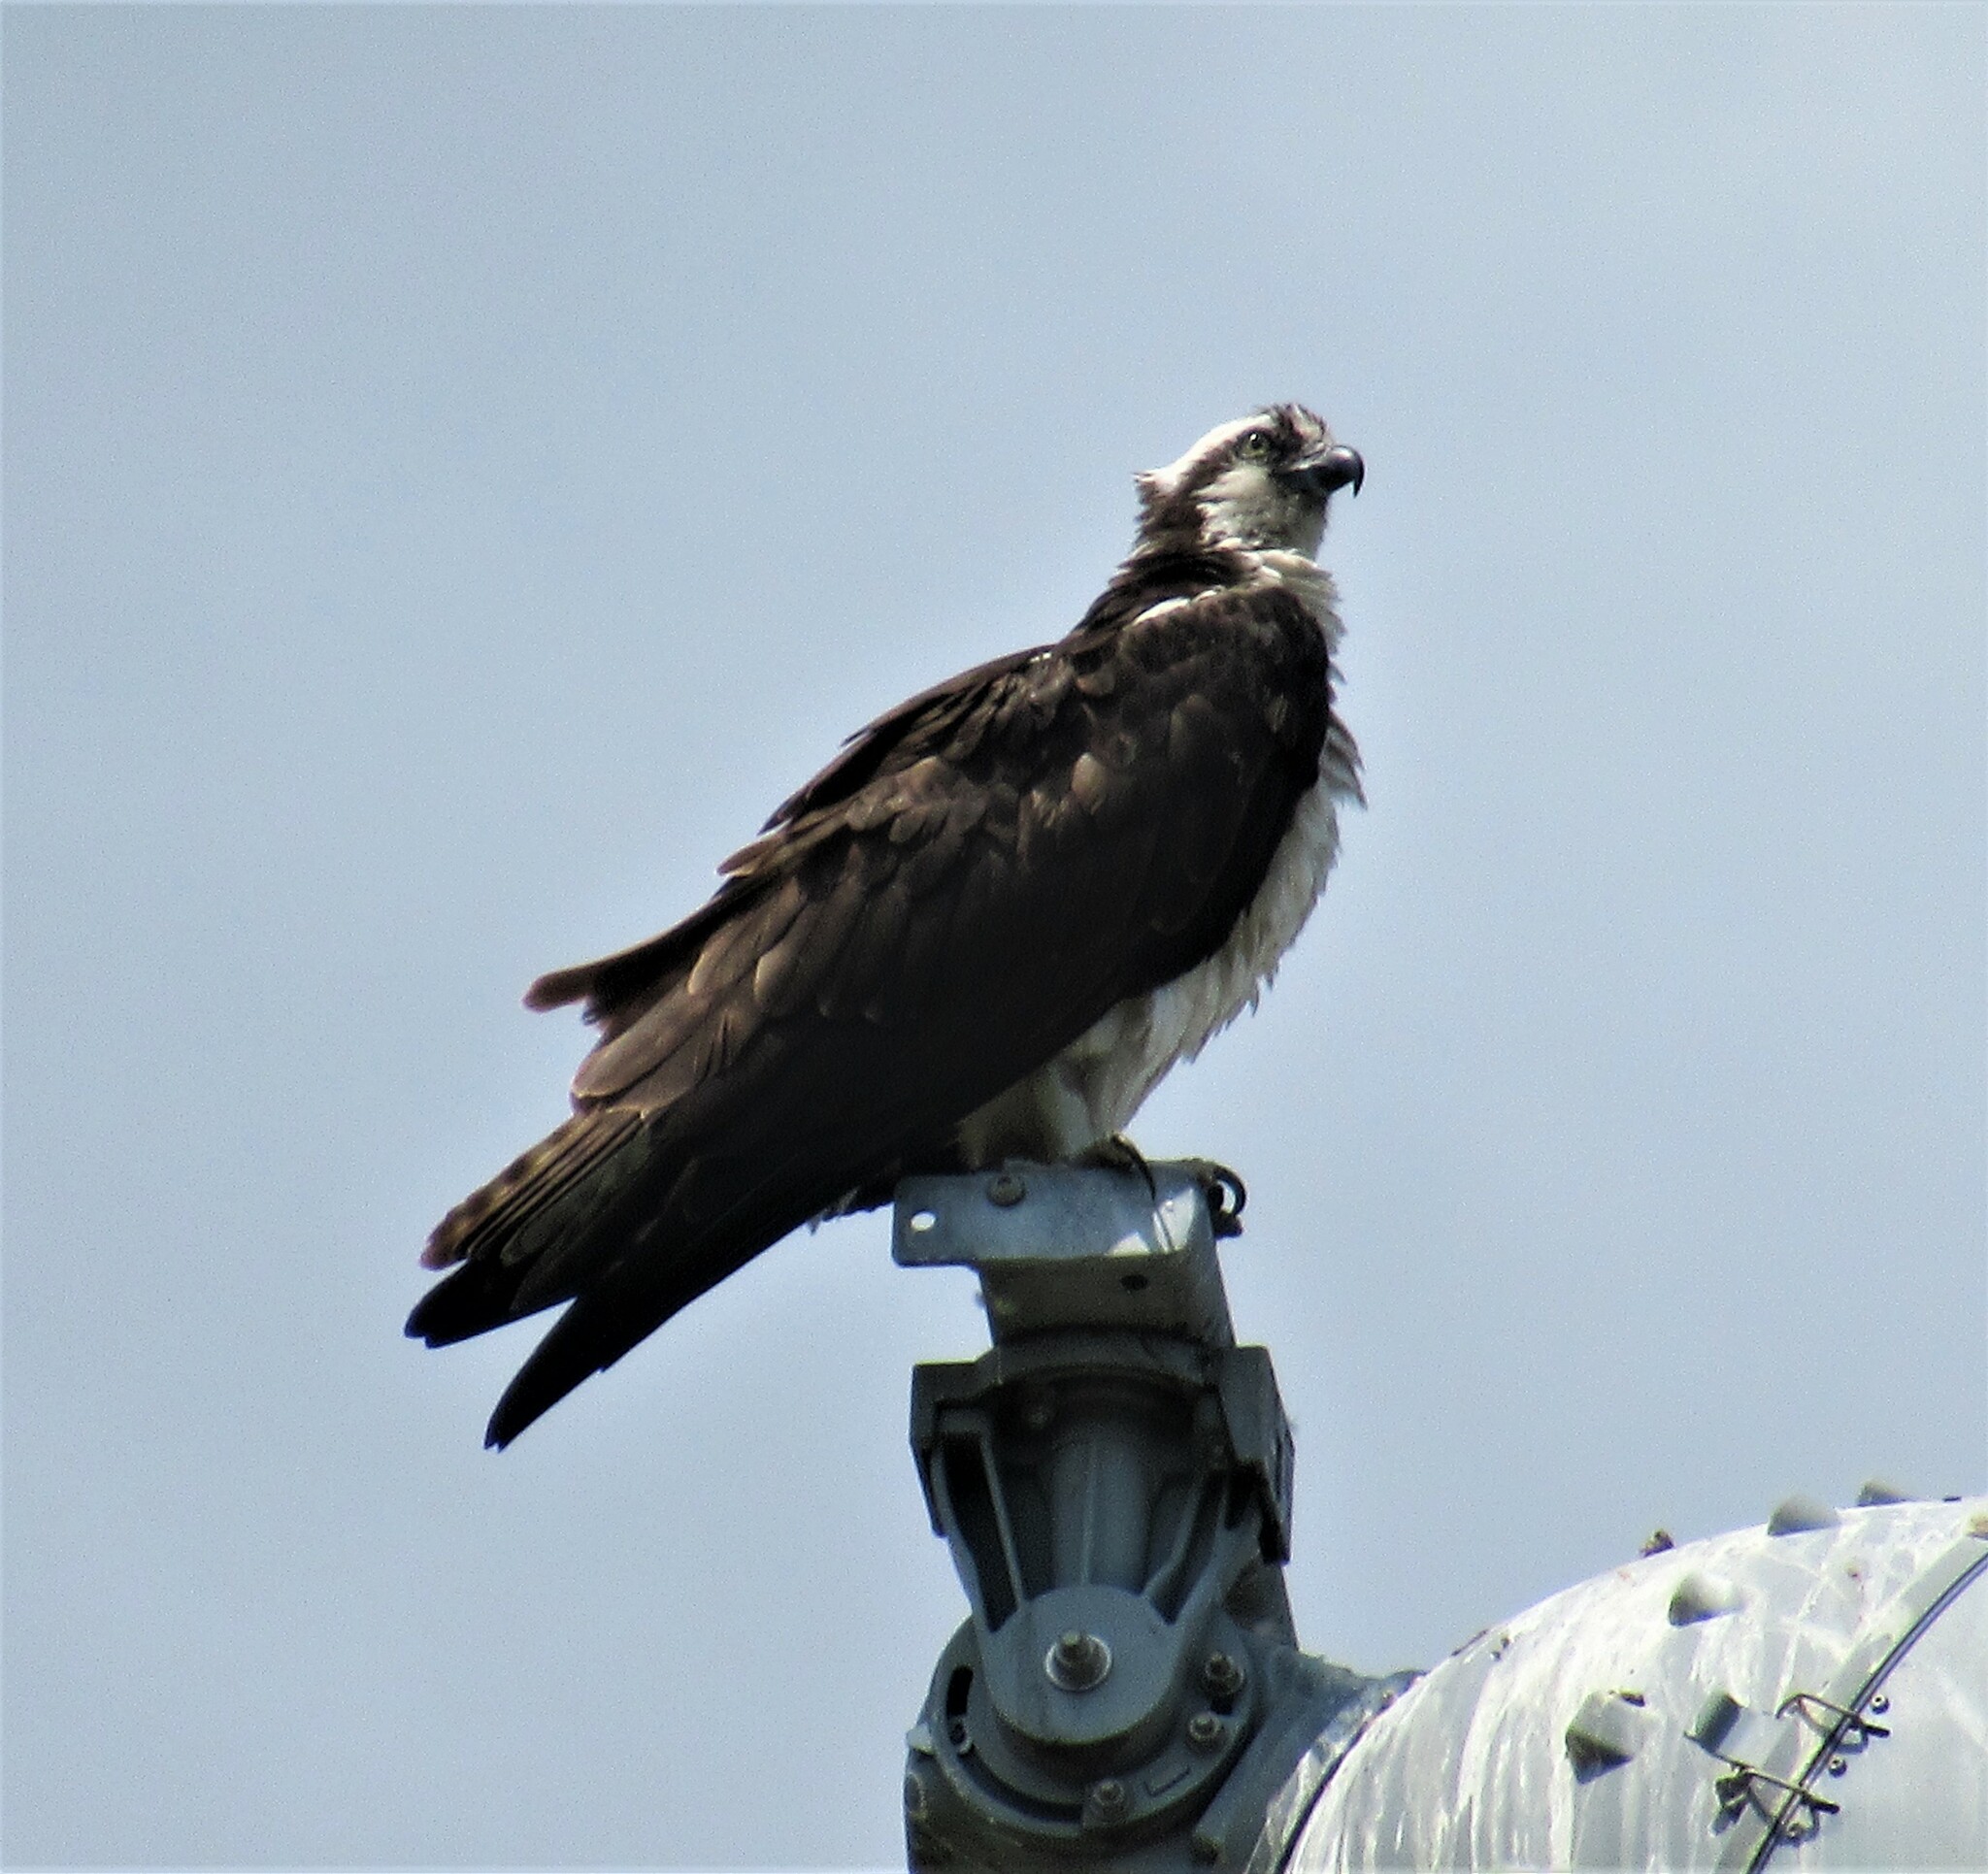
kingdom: Animalia
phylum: Chordata
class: Aves
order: Accipitriformes
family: Pandionidae
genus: Pandion
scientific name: Pandion haliaetus
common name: Osprey
